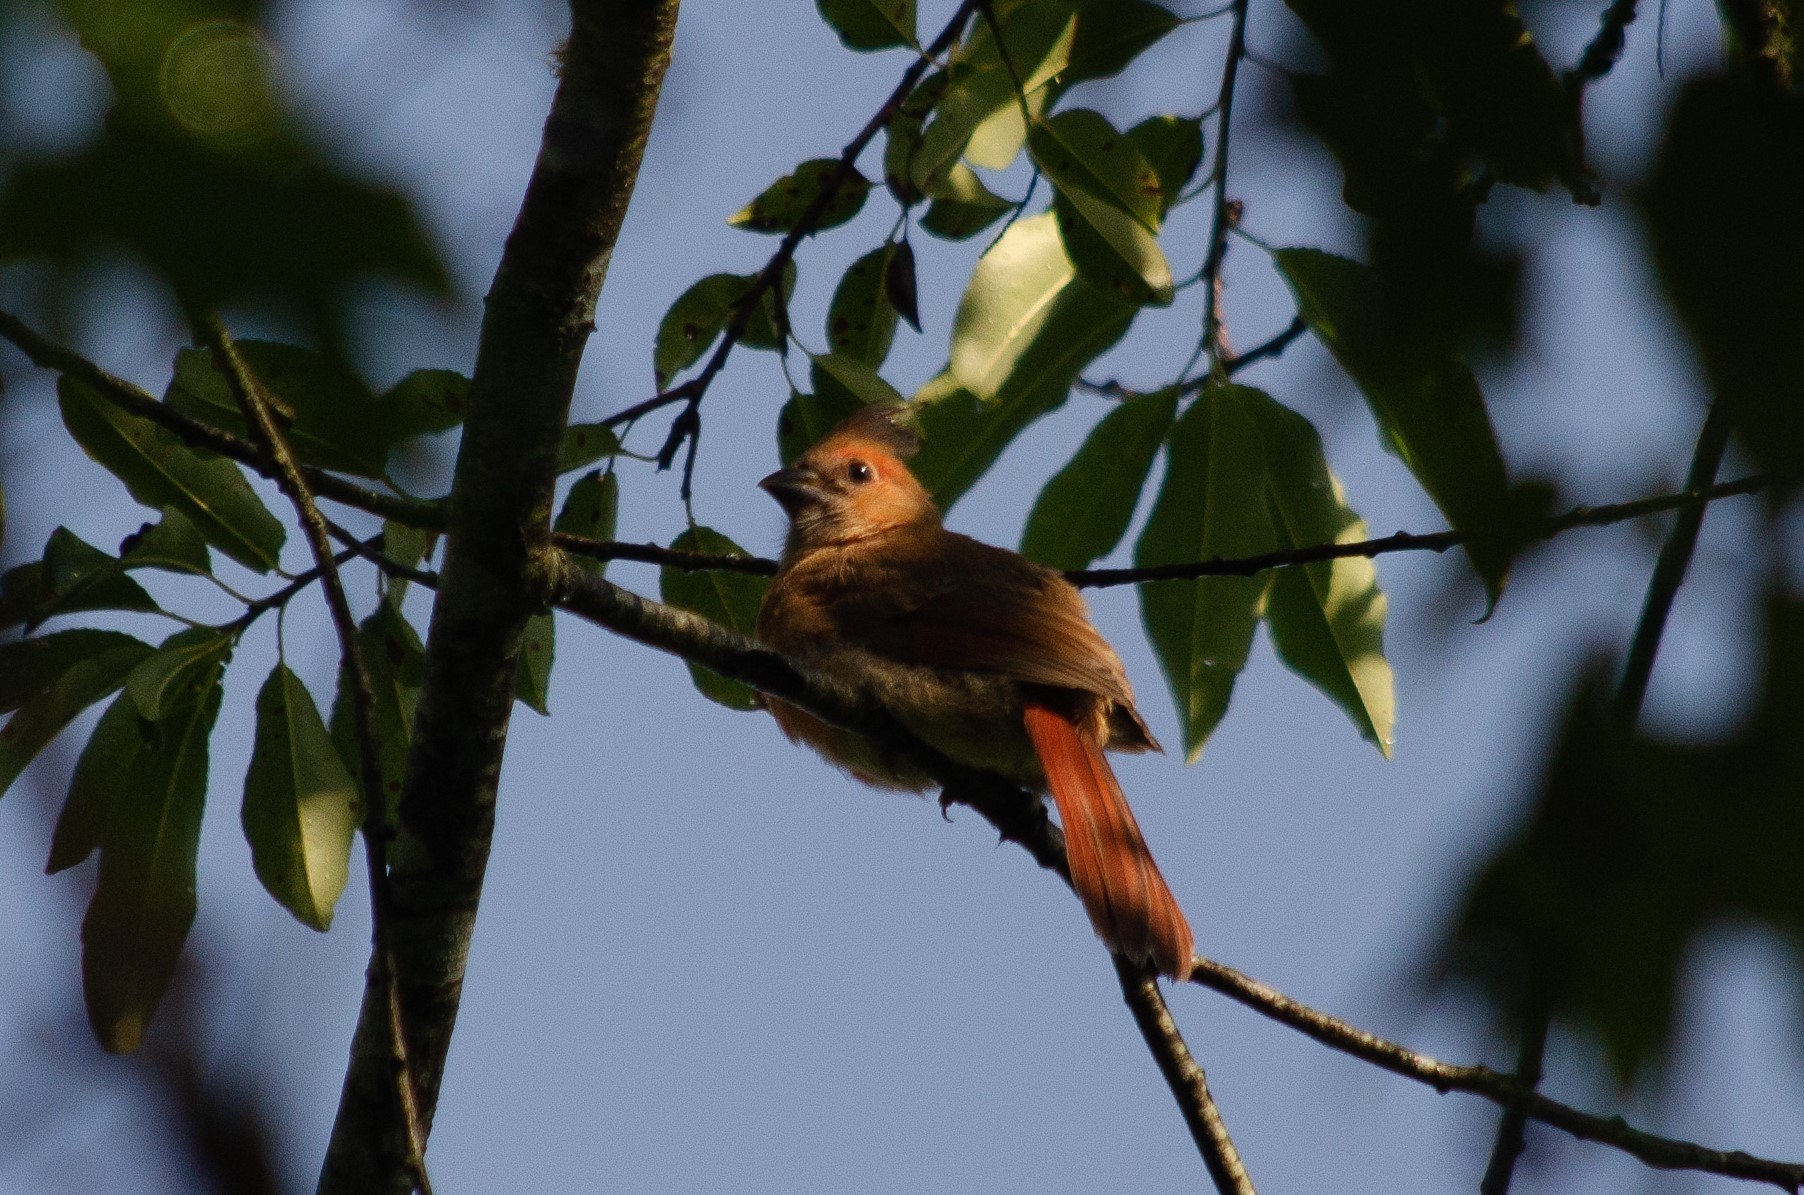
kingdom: Animalia
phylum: Chordata
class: Aves
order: Passeriformes
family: Cardinalidae
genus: Cardinalis
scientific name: Cardinalis cardinalis
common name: Northern cardinal
